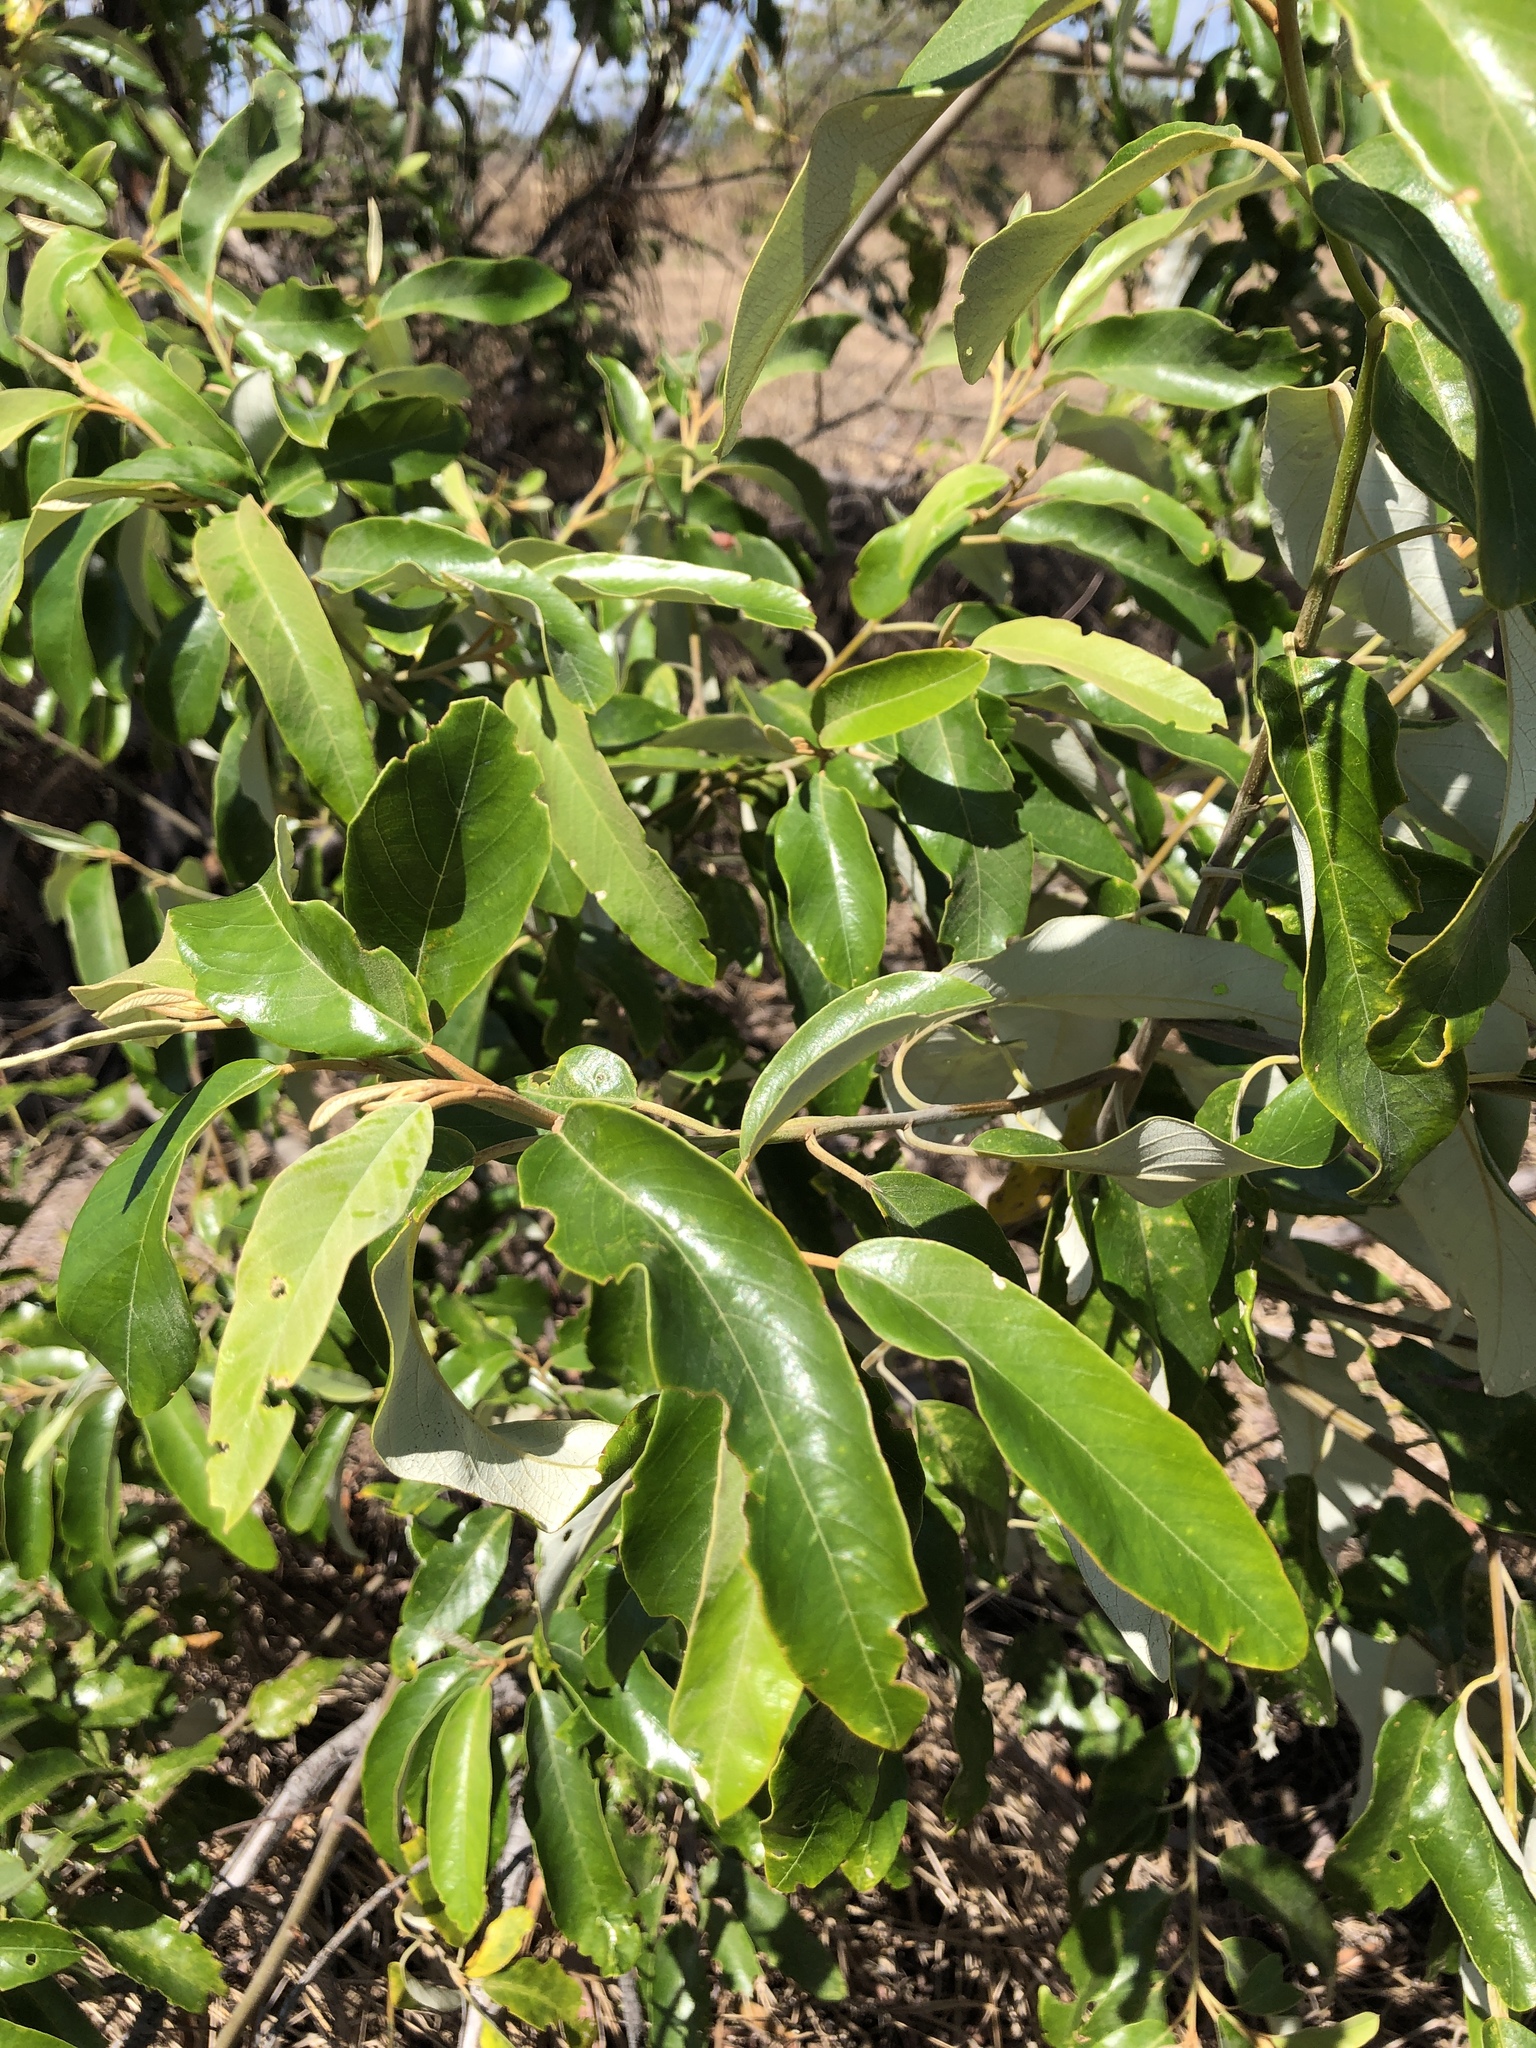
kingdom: Plantae
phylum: Tracheophyta
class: Magnoliopsida
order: Rosales
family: Rhamnaceae
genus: Alphitonia
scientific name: Alphitonia excelsa
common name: Red ash
